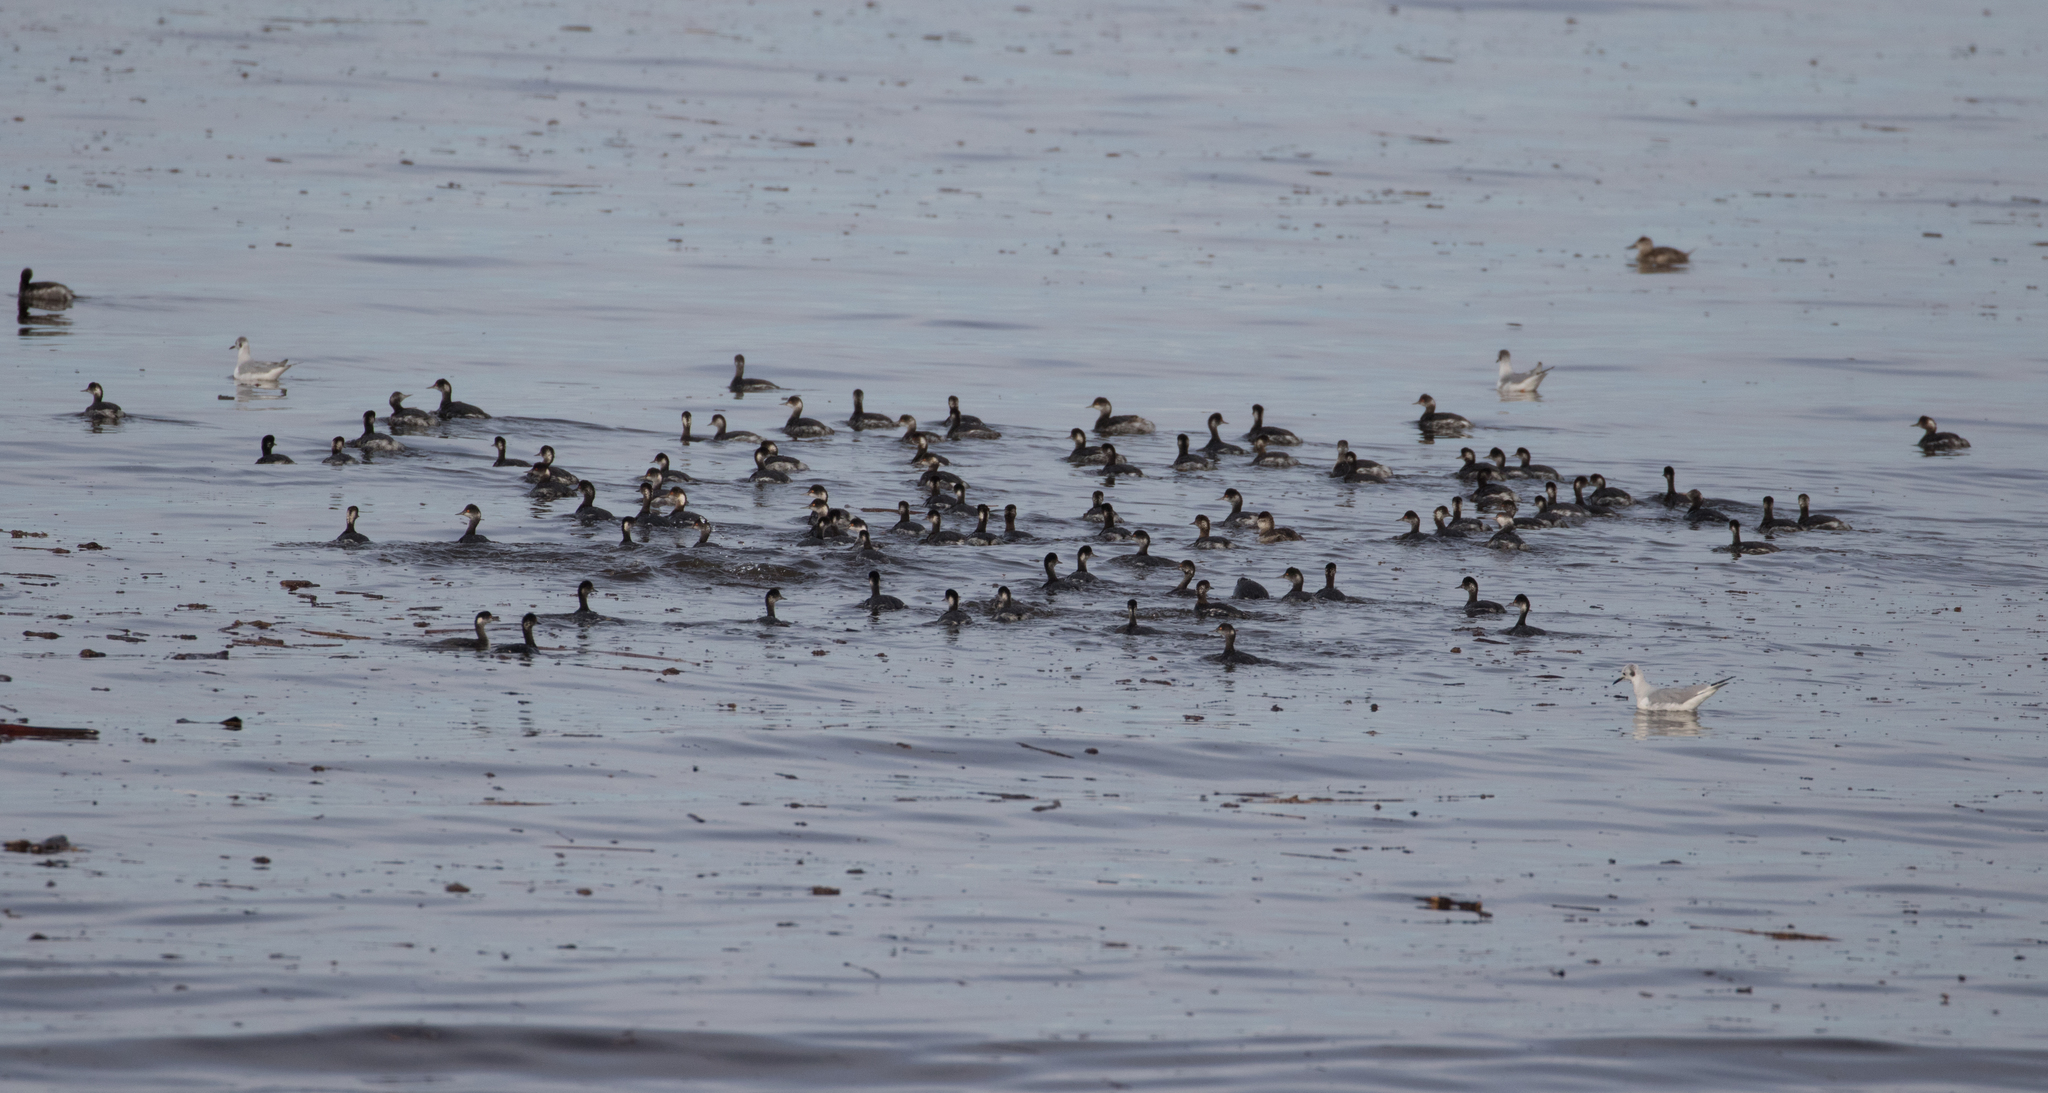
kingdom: Animalia
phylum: Chordata
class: Aves
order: Podicipediformes
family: Podicipedidae
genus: Podiceps
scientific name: Podiceps nigricollis
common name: Black-necked grebe
